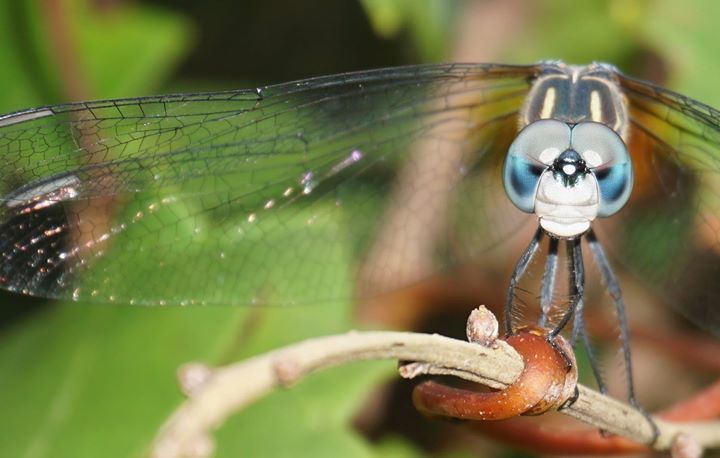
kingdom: Animalia
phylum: Arthropoda
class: Insecta
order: Odonata
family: Libellulidae
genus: Pachydiplax
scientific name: Pachydiplax longipennis
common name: Blue dasher
